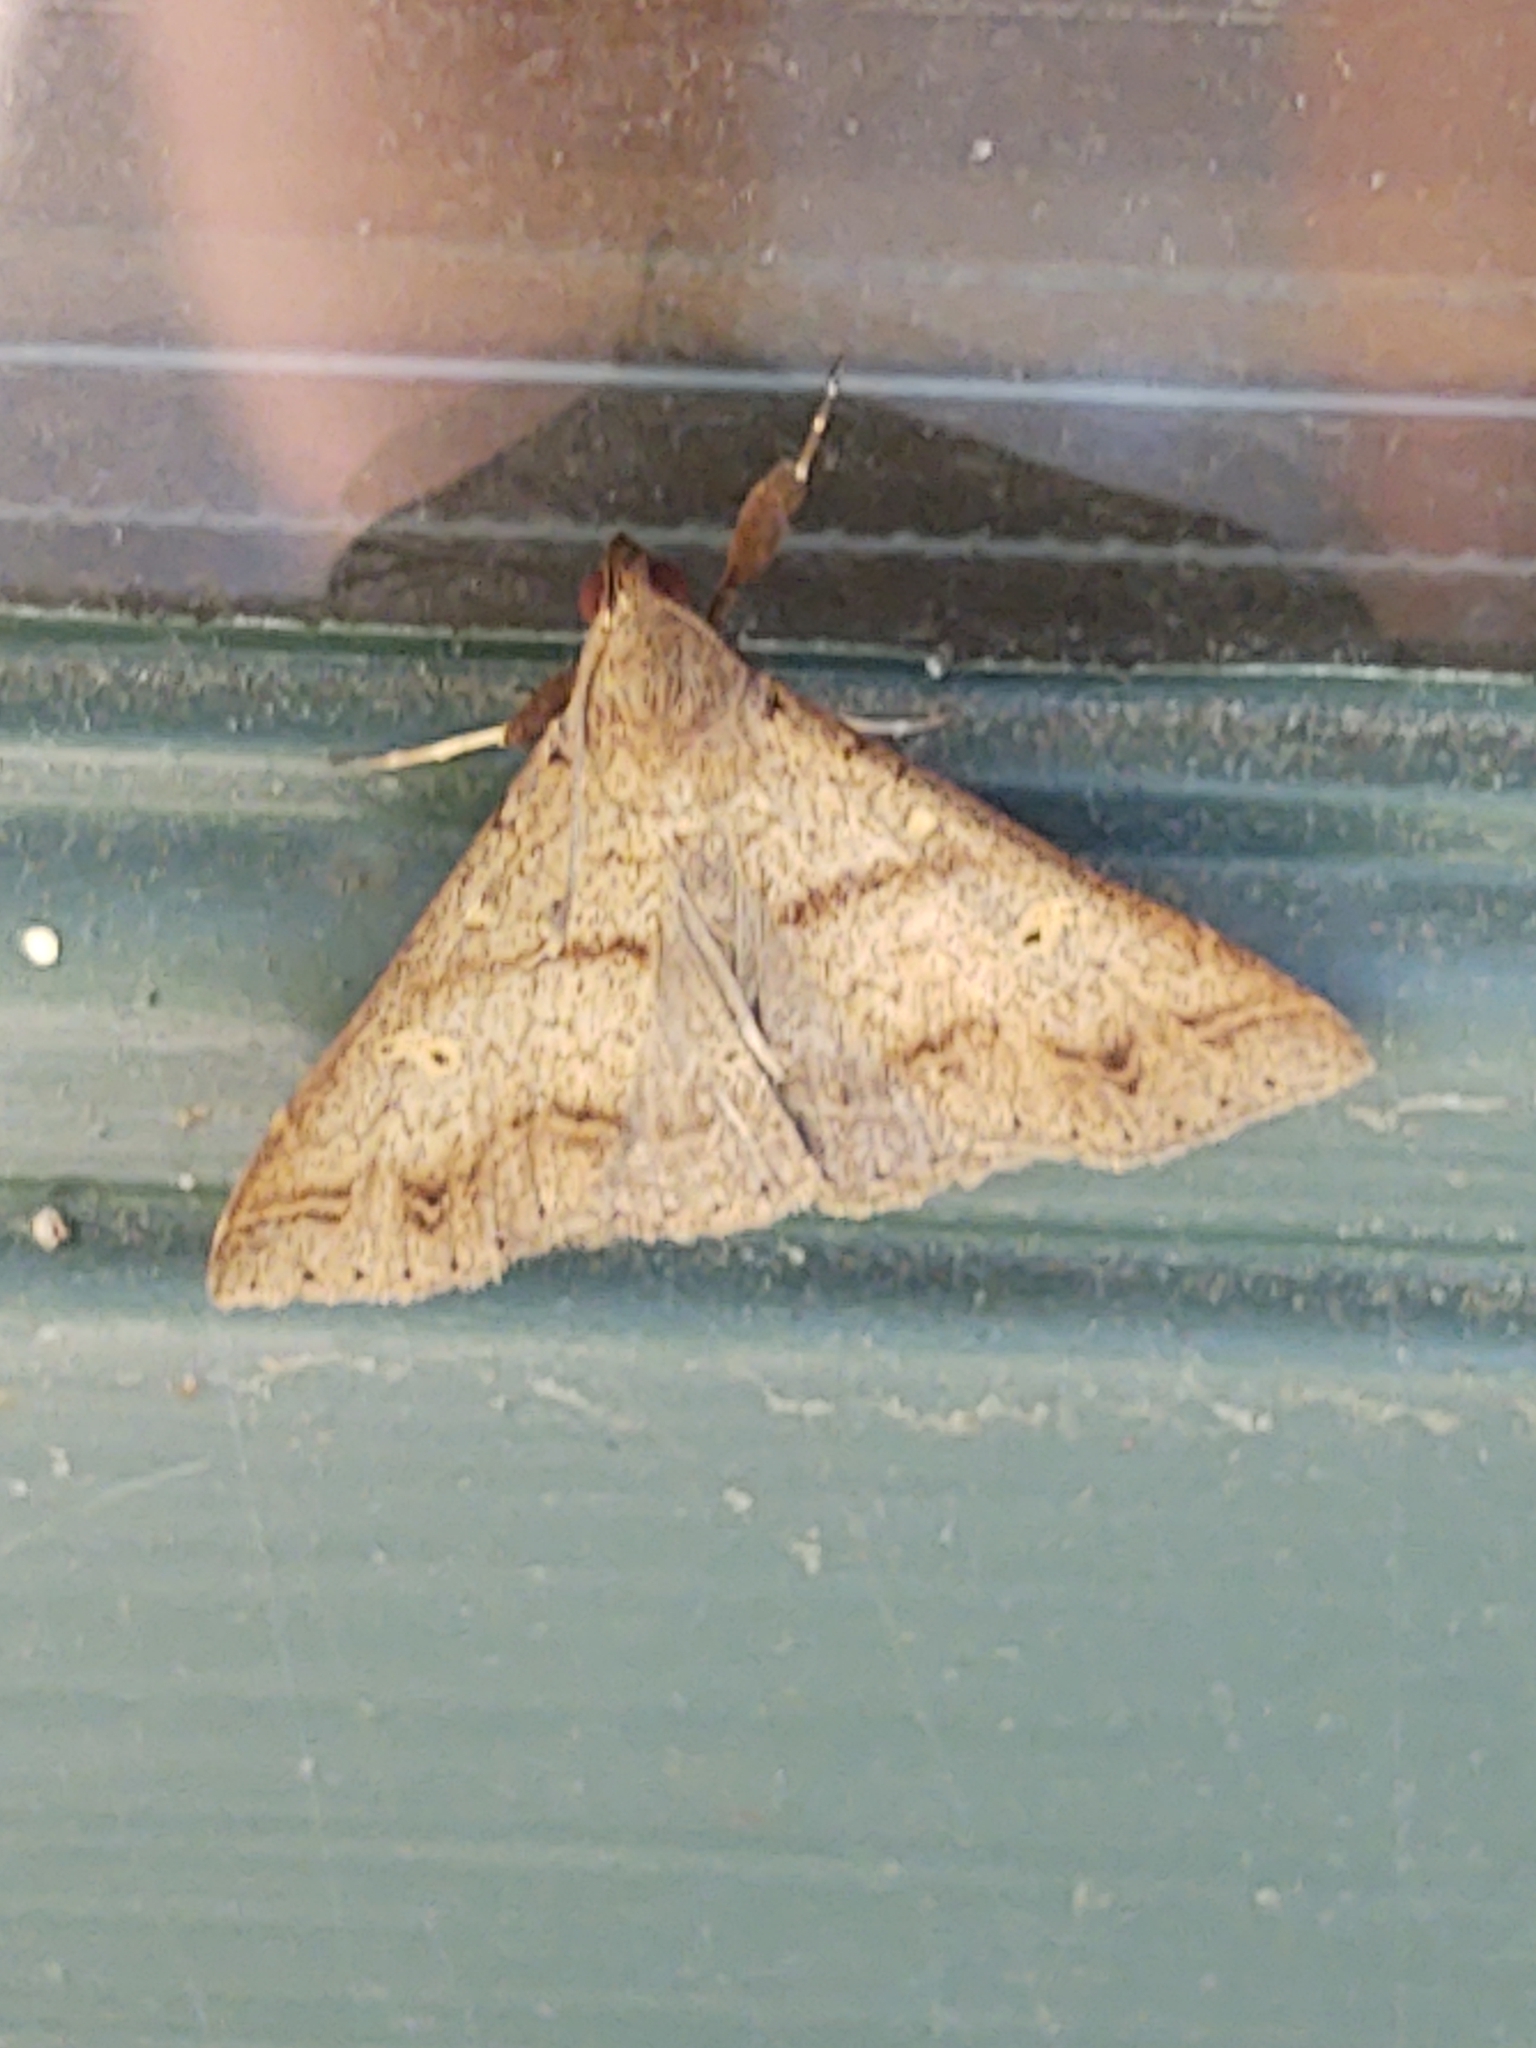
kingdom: Animalia
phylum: Arthropoda
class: Insecta
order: Lepidoptera
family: Erebidae
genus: Renia
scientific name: Renia discoloralis
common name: Discolored renia moth
